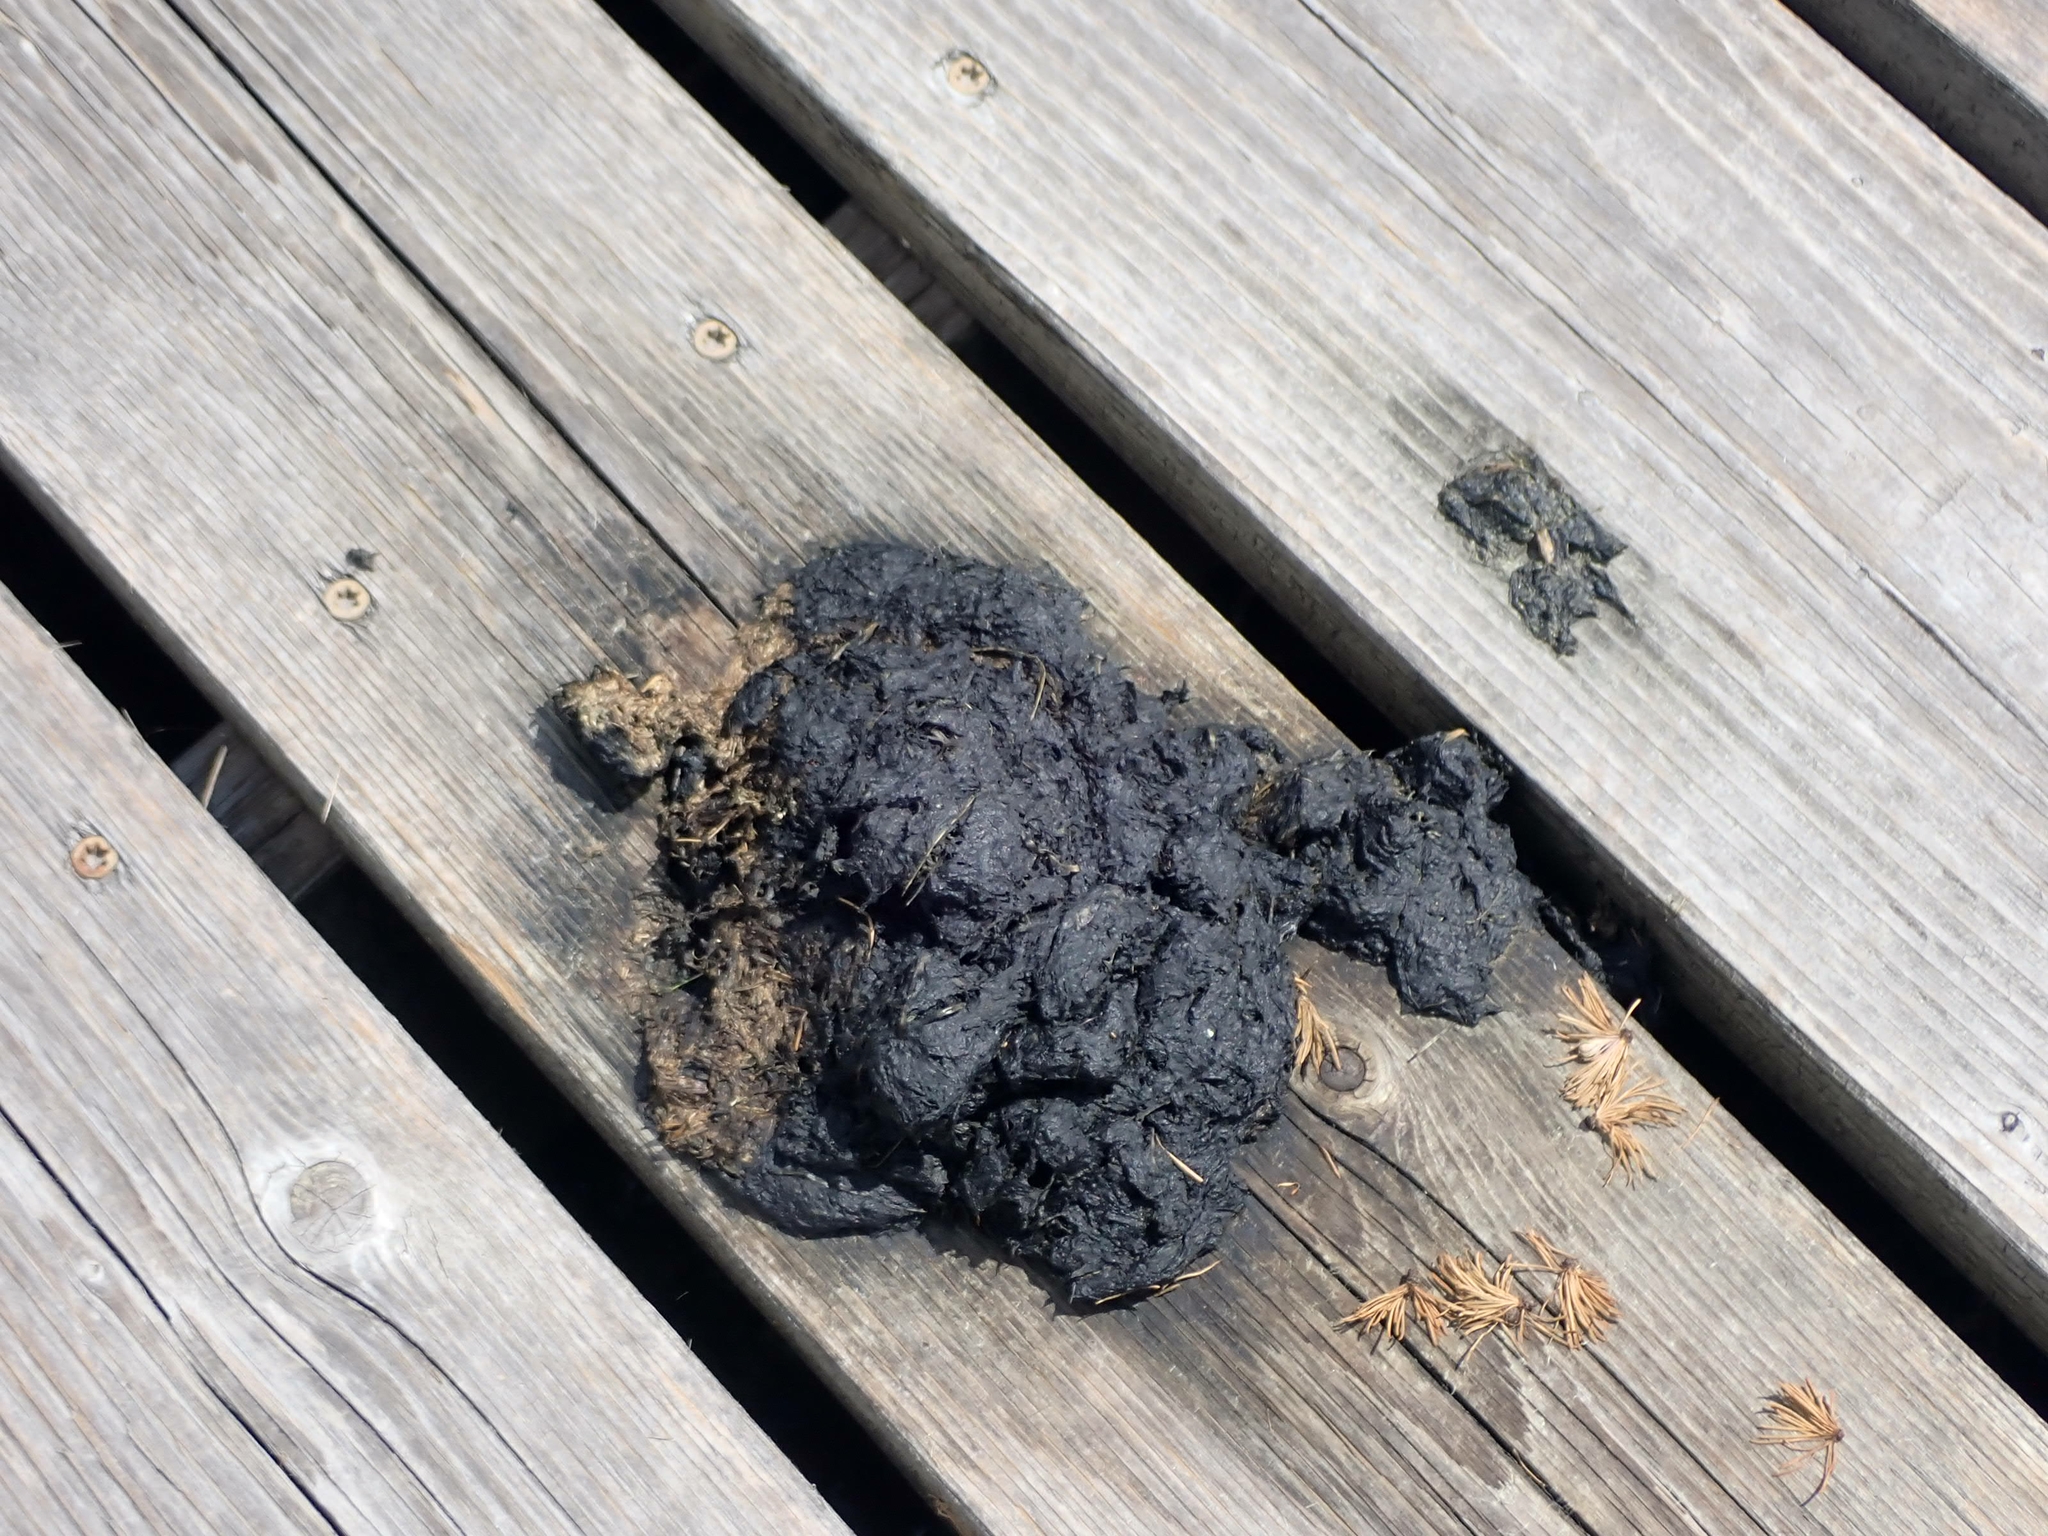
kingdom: Animalia
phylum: Chordata
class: Mammalia
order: Carnivora
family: Ursidae
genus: Ursus
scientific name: Ursus americanus
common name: American black bear
